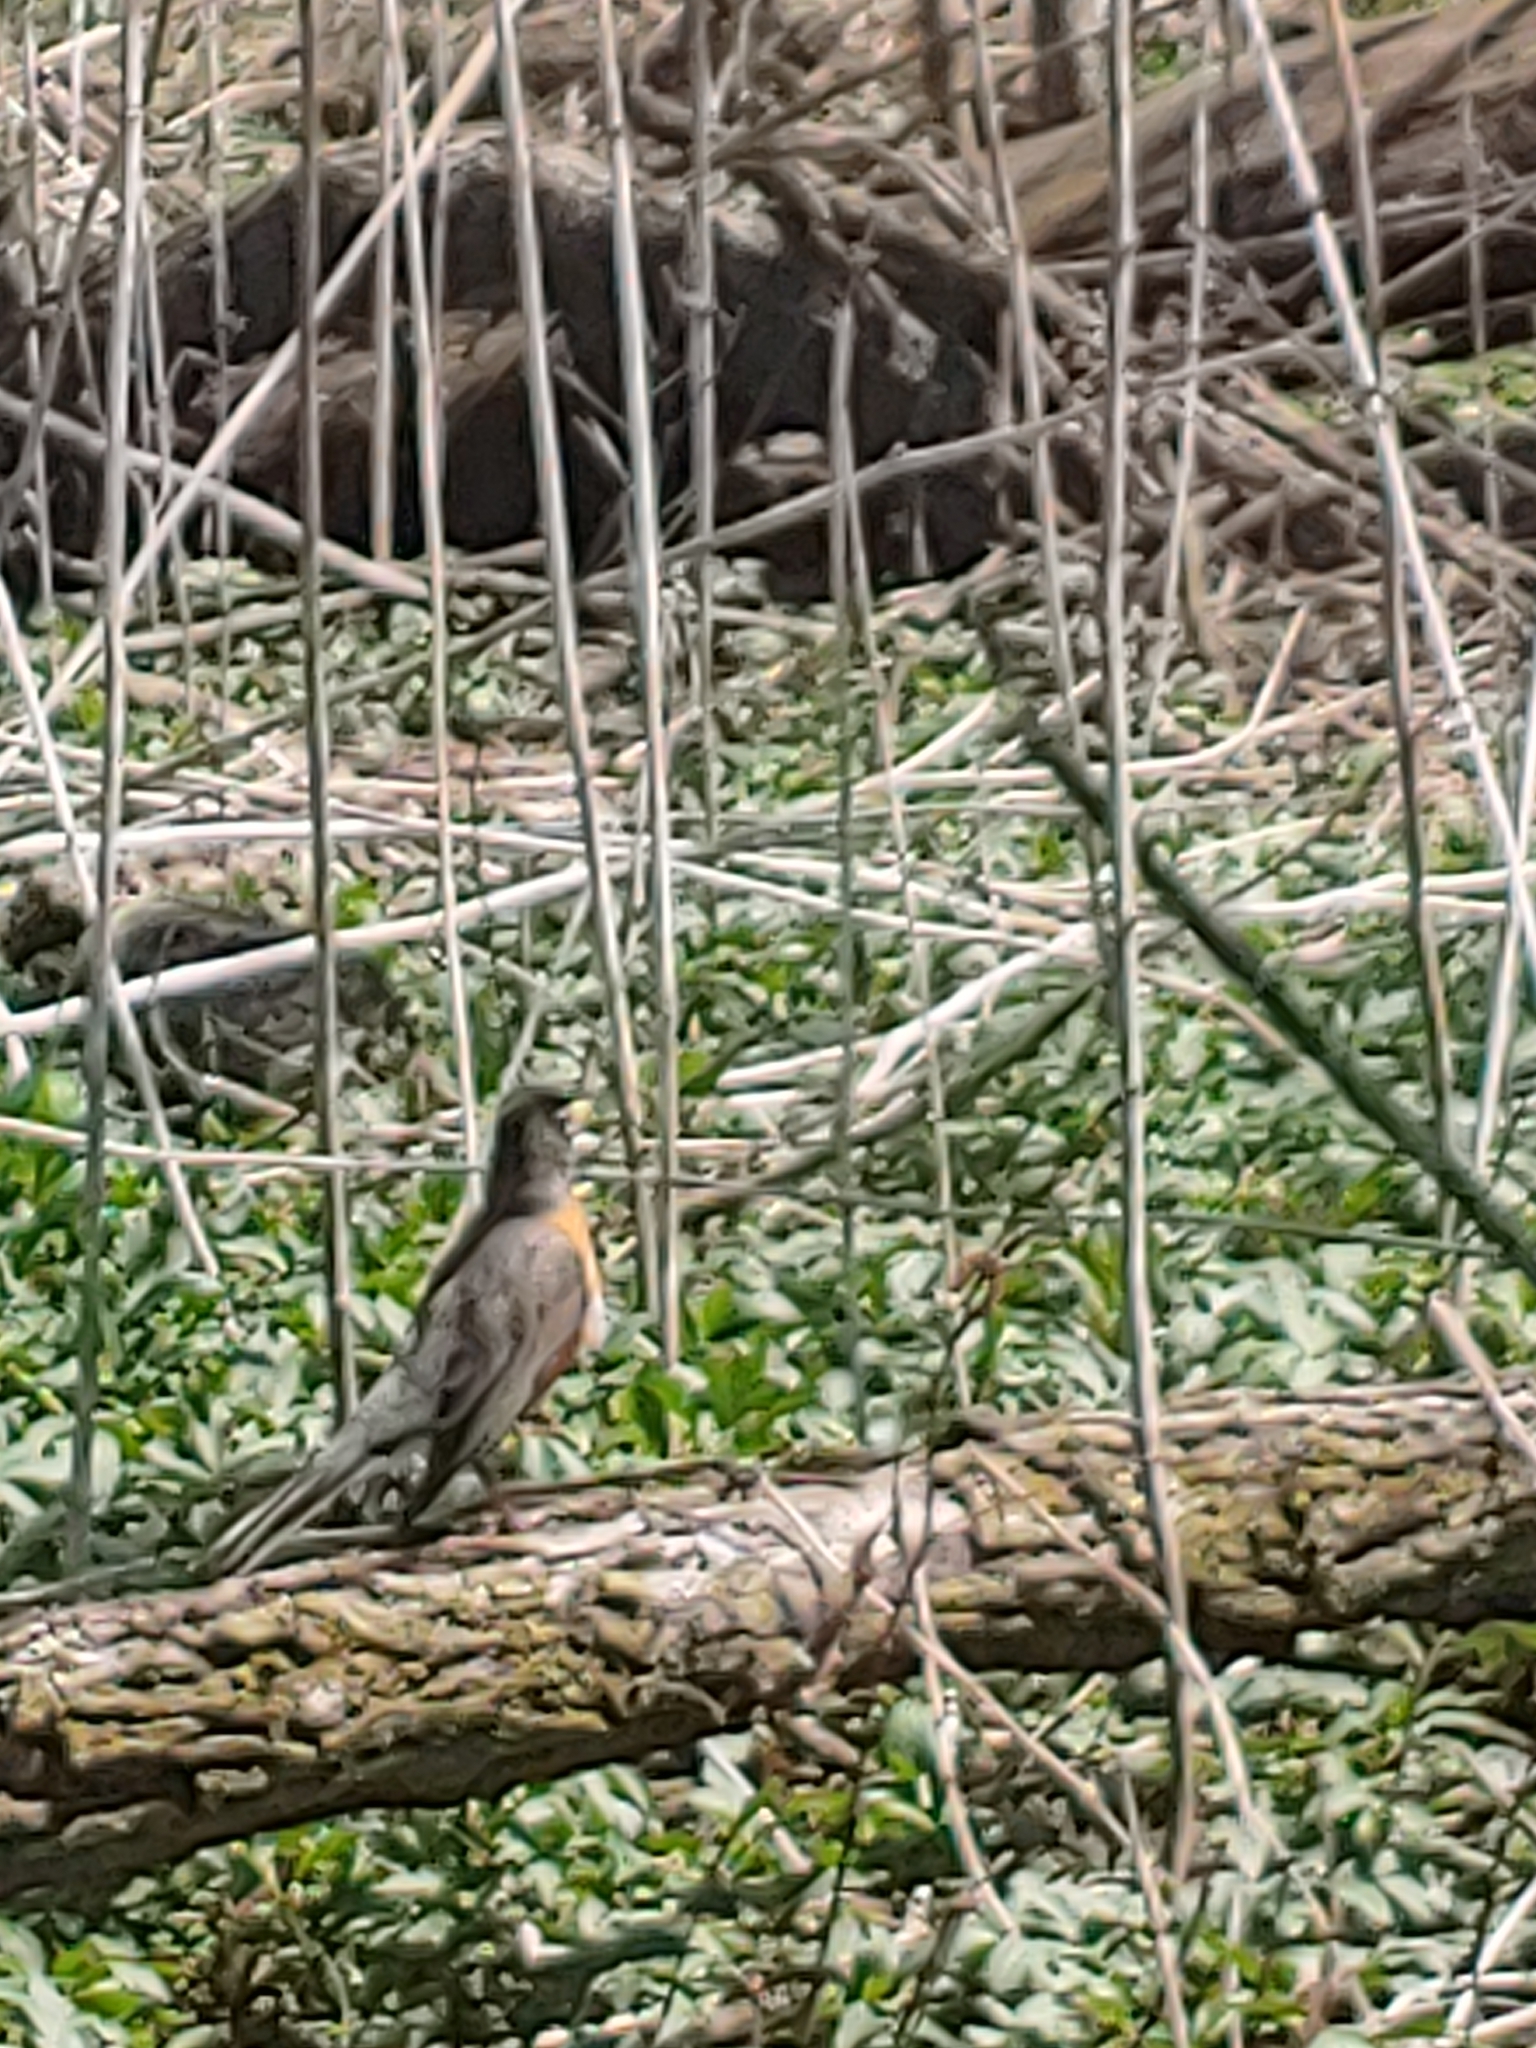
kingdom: Animalia
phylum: Chordata
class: Aves
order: Passeriformes
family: Turdidae
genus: Turdus
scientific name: Turdus migratorius
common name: American robin
